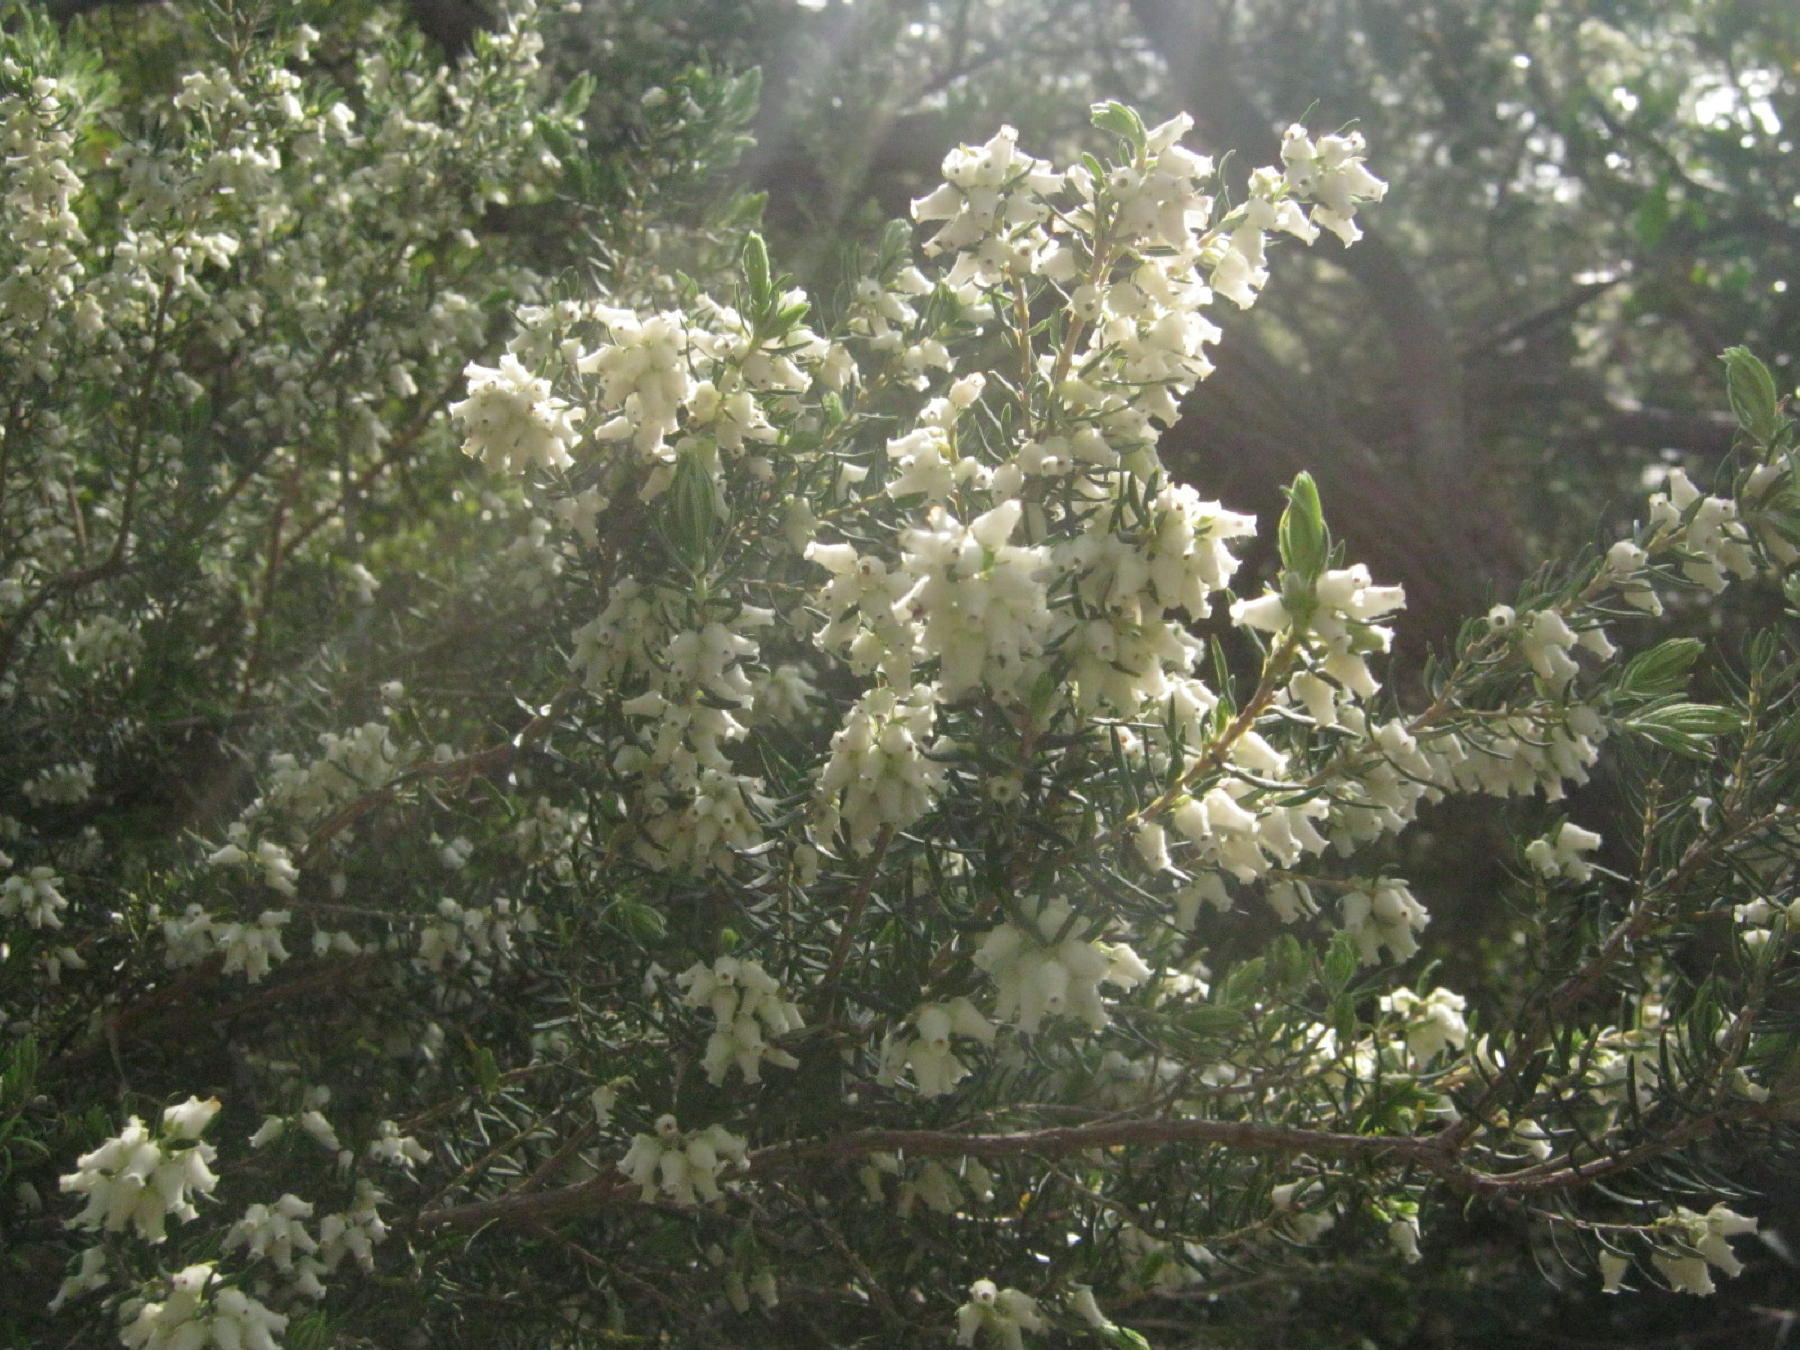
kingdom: Plantae
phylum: Tracheophyta
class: Magnoliopsida
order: Ericales
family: Ericaceae
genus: Erica
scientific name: Erica caffra
